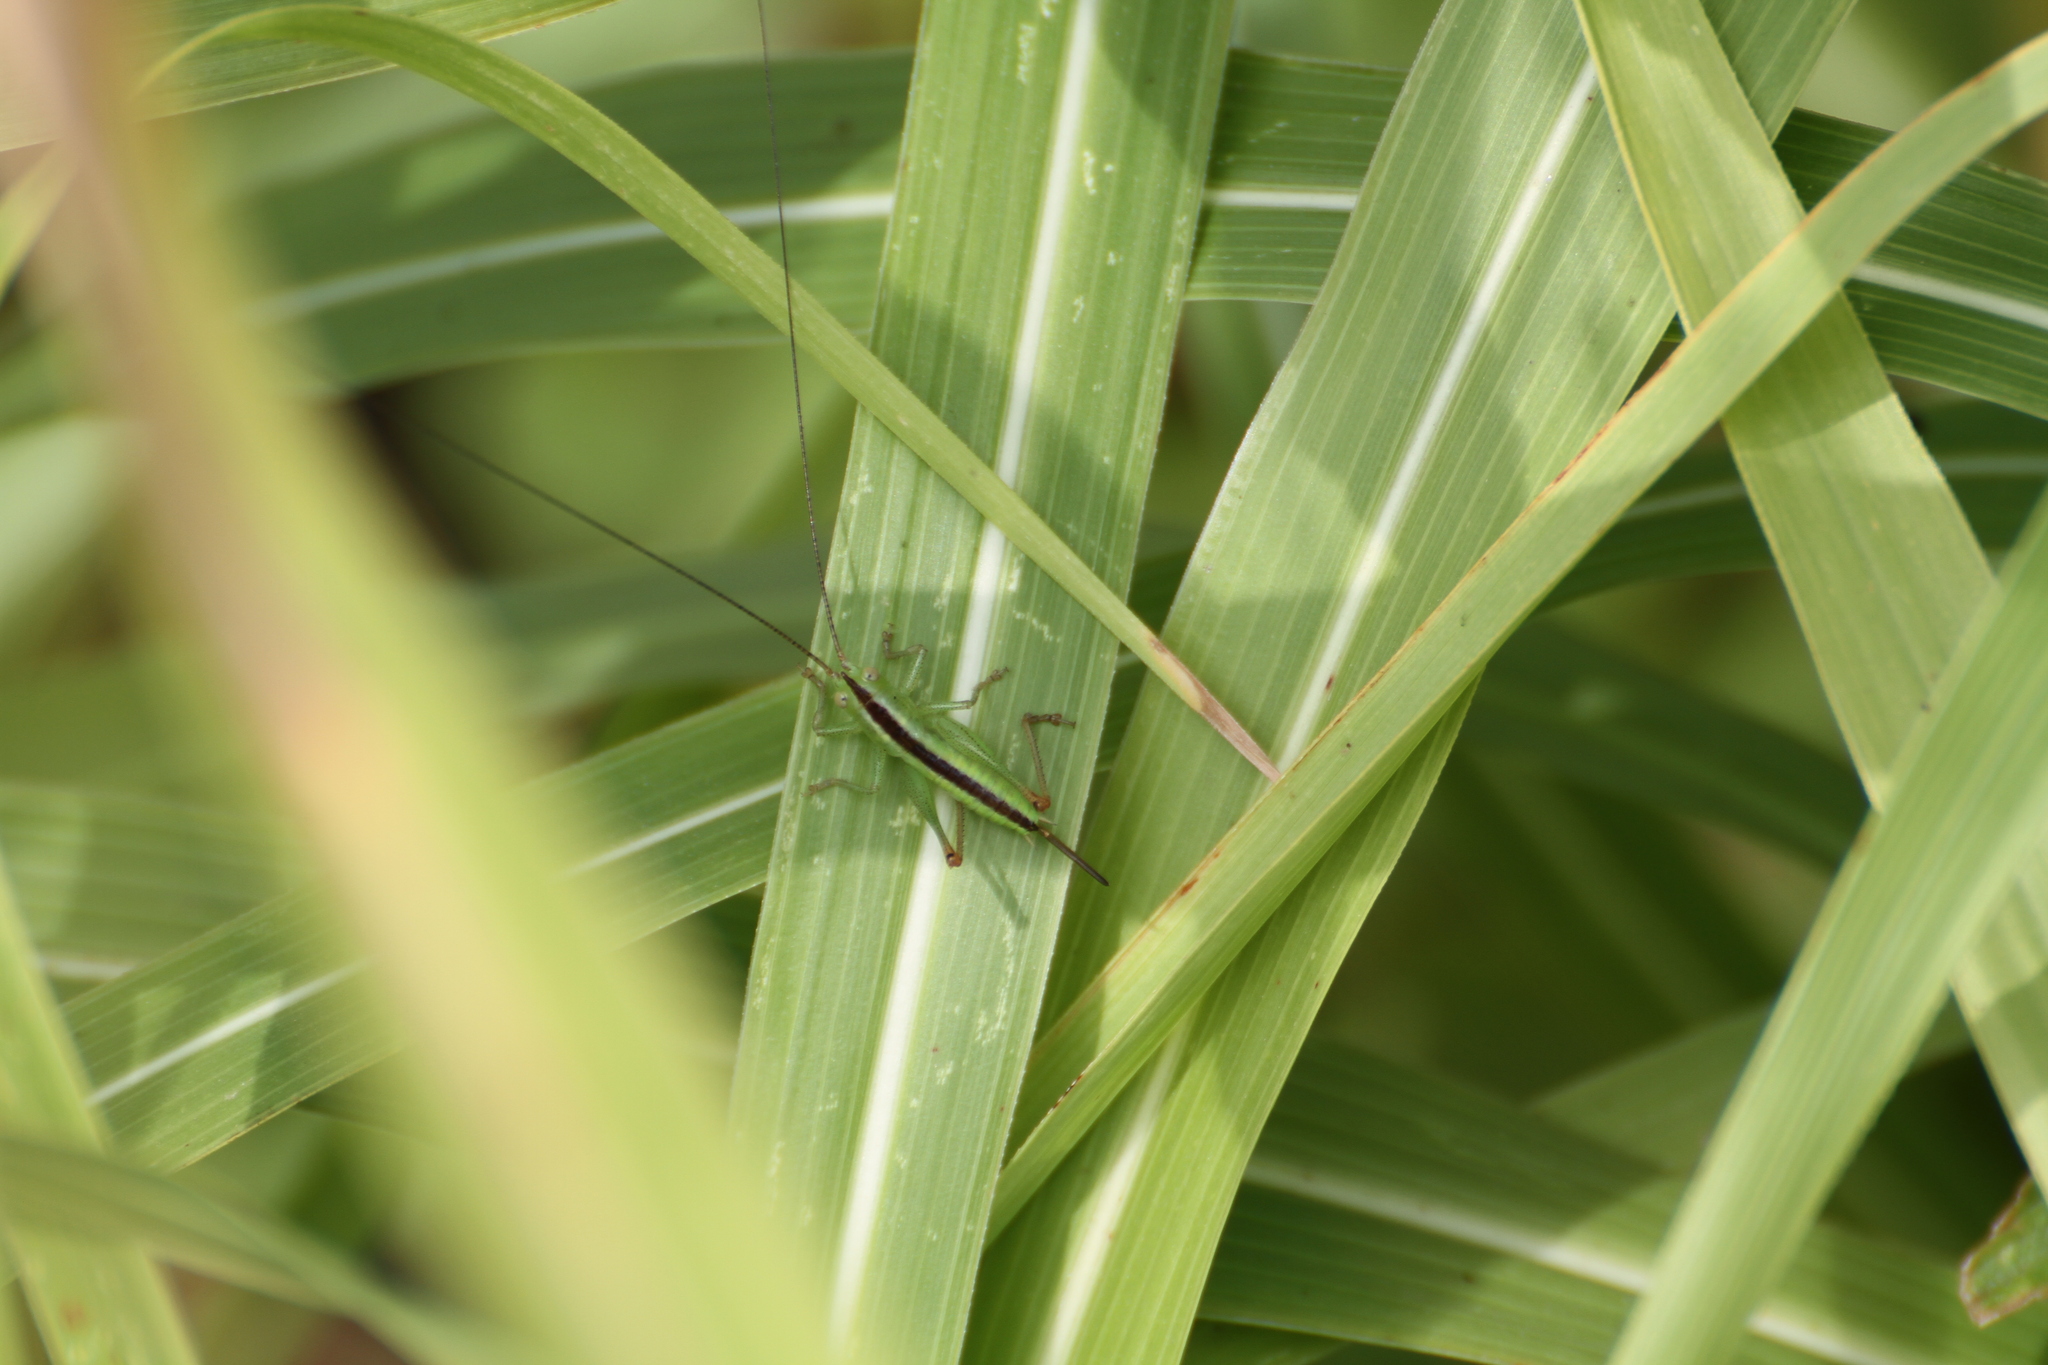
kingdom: Animalia
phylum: Arthropoda
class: Insecta
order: Orthoptera
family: Tettigoniidae
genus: Conocephalus
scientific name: Conocephalus fuscus
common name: Long-winged conehead
